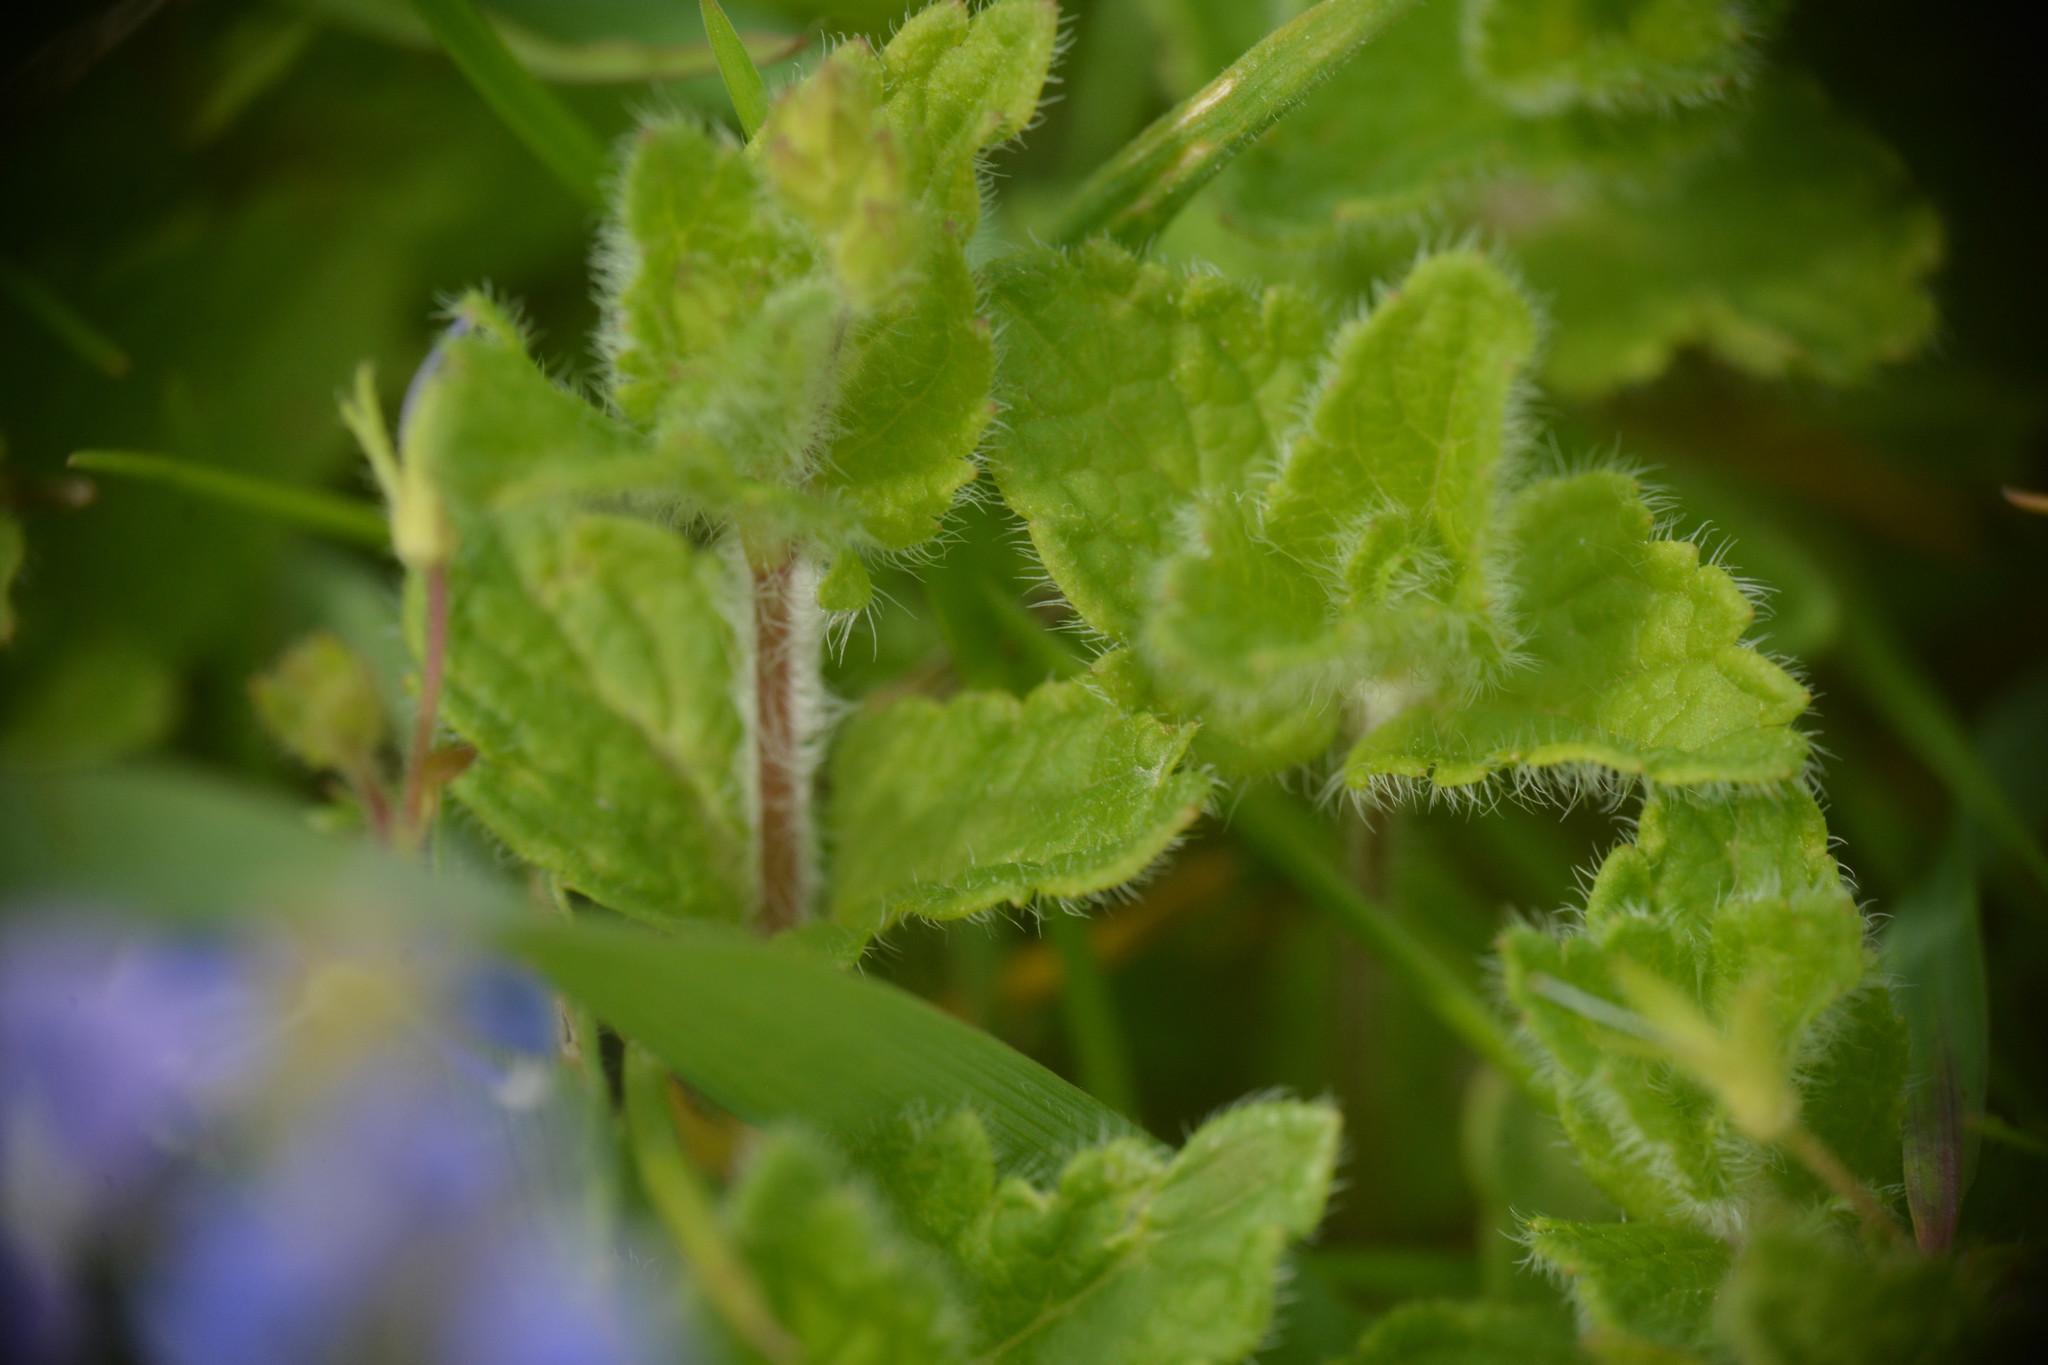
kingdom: Plantae
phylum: Tracheophyta
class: Magnoliopsida
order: Lamiales
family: Plantaginaceae
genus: Veronica
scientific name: Veronica chamaedrys
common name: Germander speedwell
